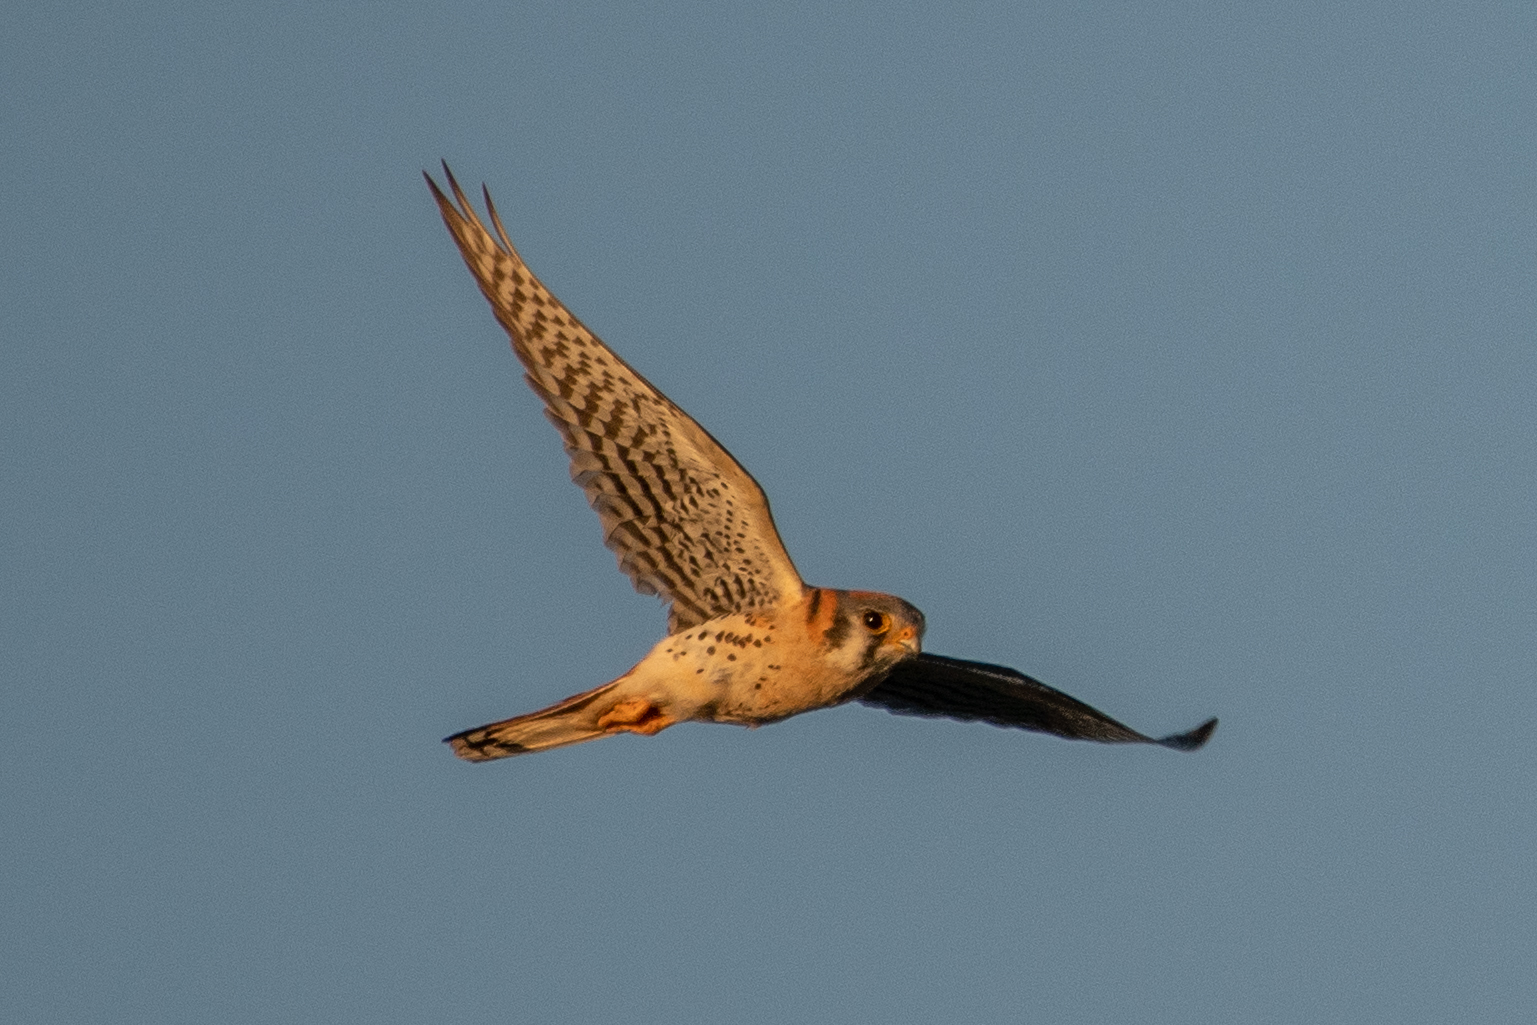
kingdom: Animalia
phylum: Chordata
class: Aves
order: Falconiformes
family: Falconidae
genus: Falco
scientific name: Falco sparverius
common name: American kestrel
